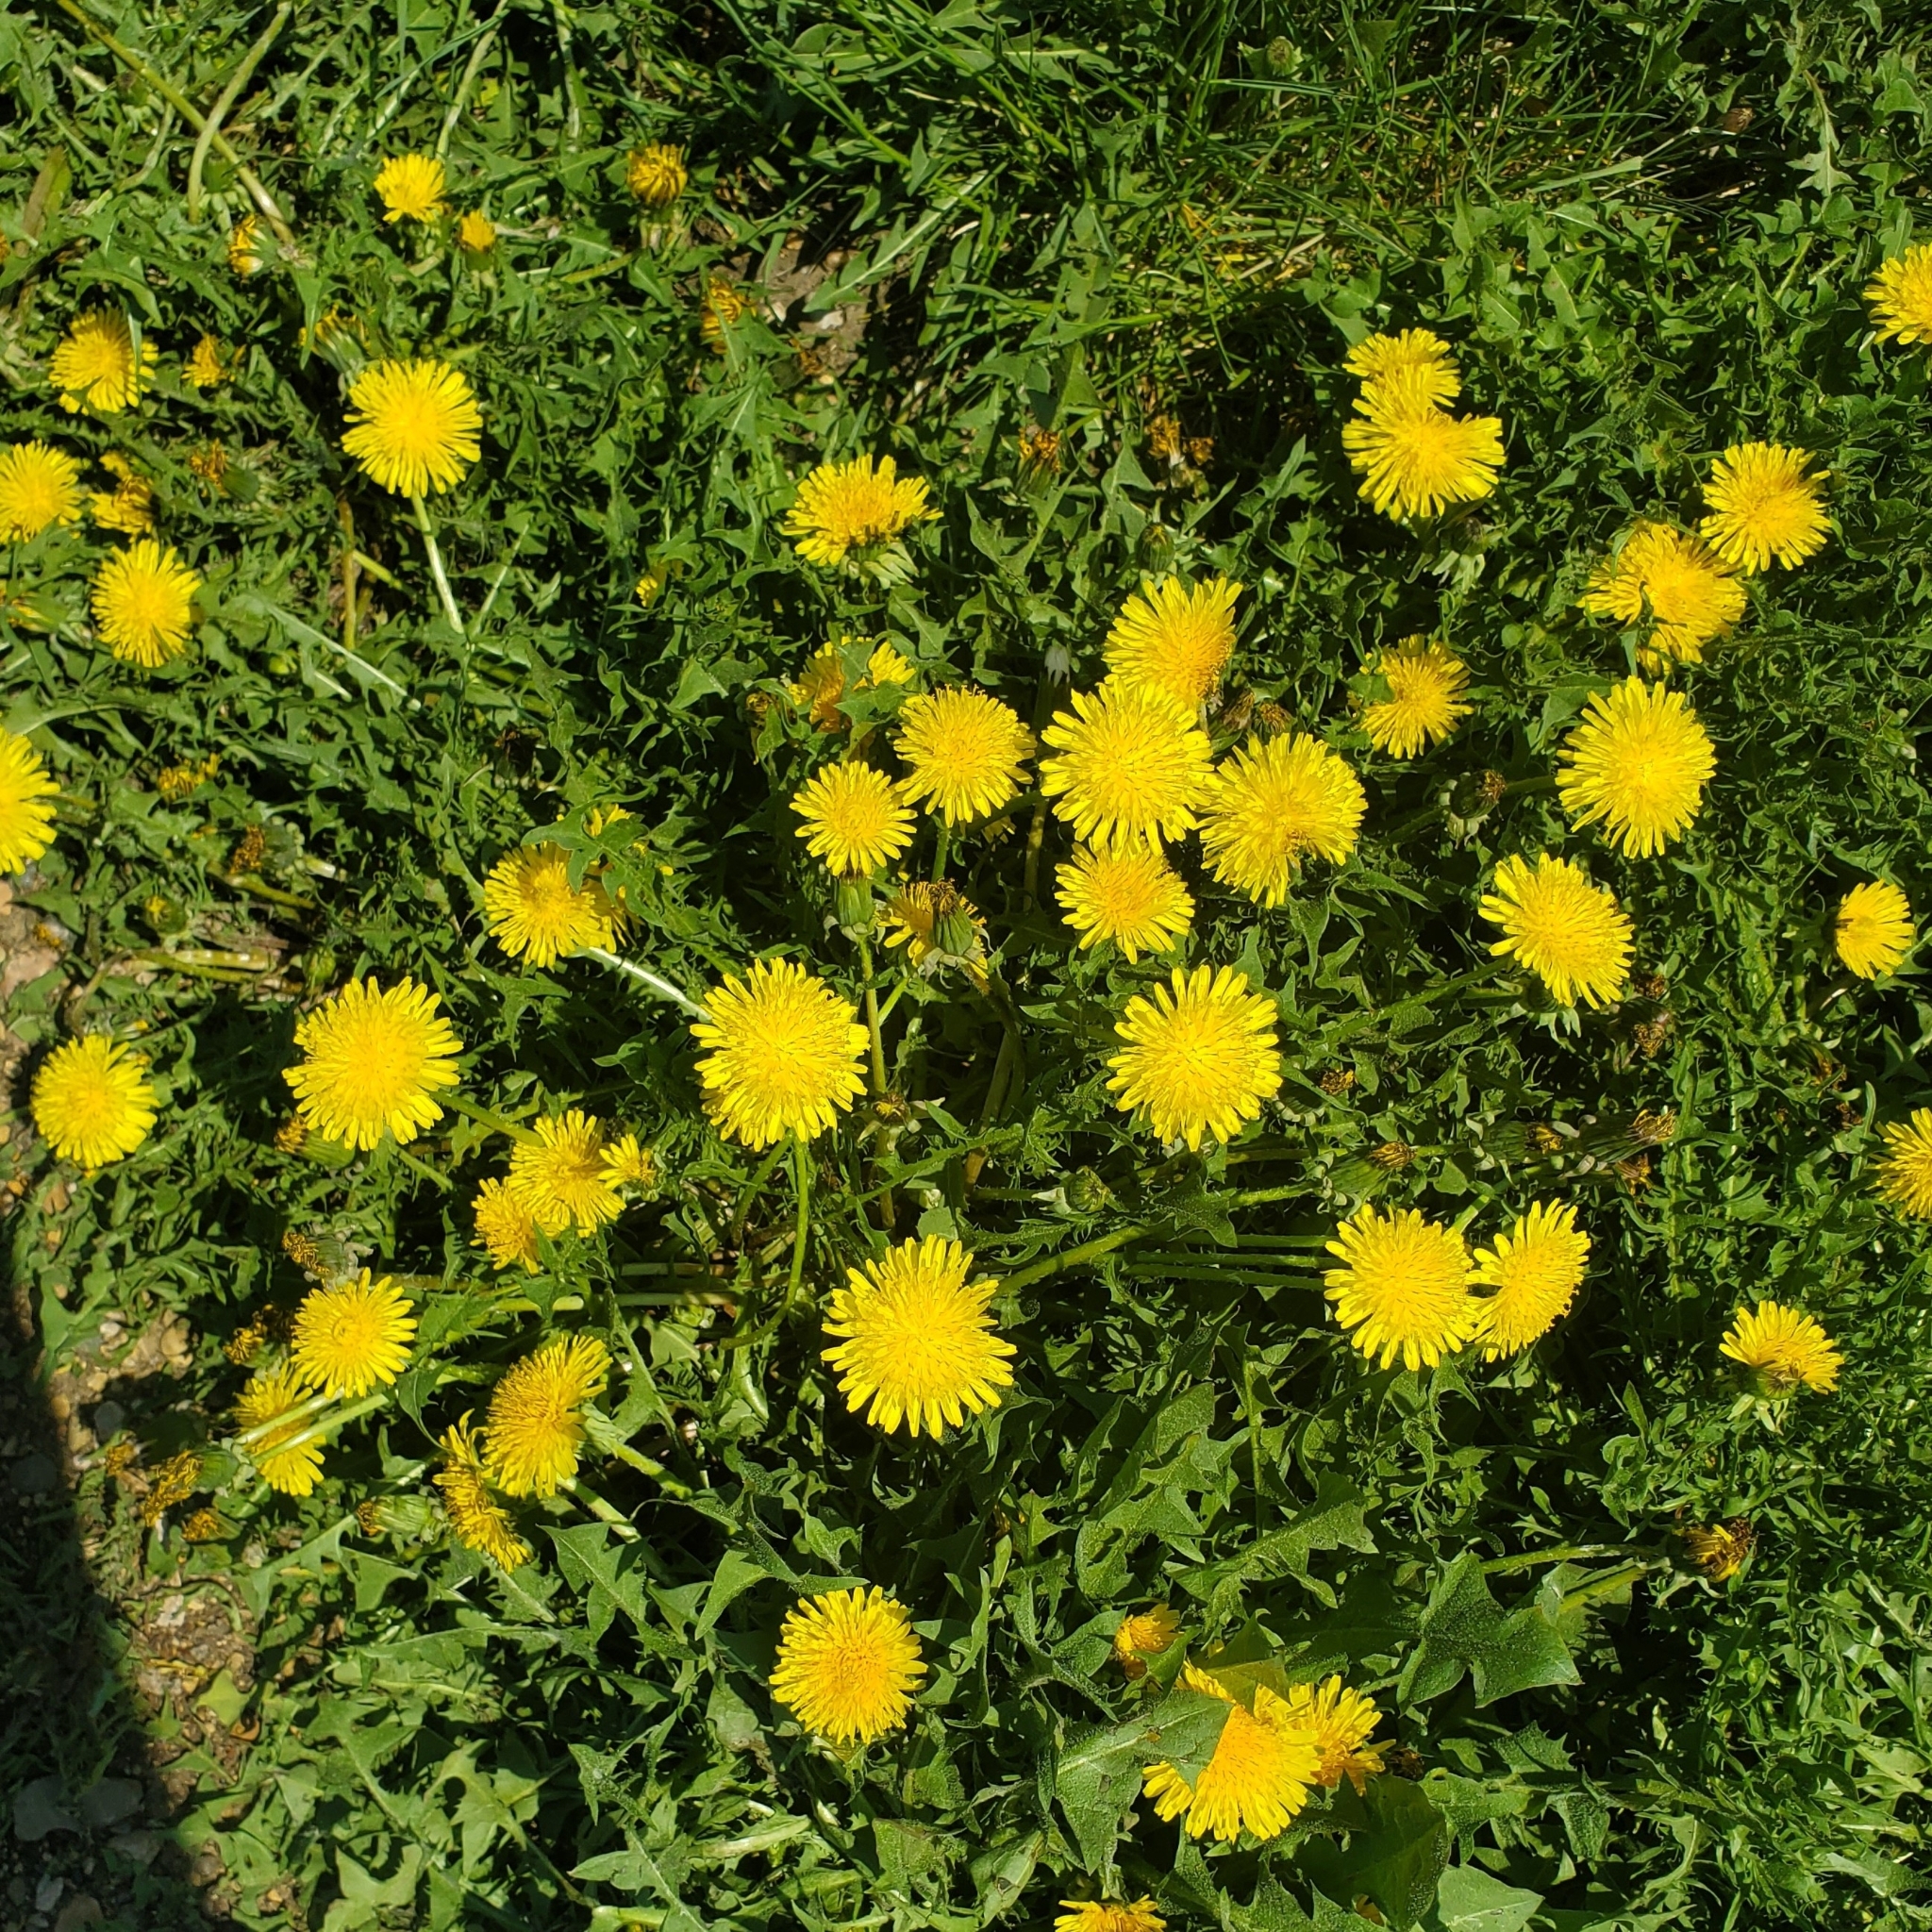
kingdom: Plantae
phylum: Tracheophyta
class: Magnoliopsida
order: Asterales
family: Asteraceae
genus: Taraxacum
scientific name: Taraxacum officinale
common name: Common dandelion
